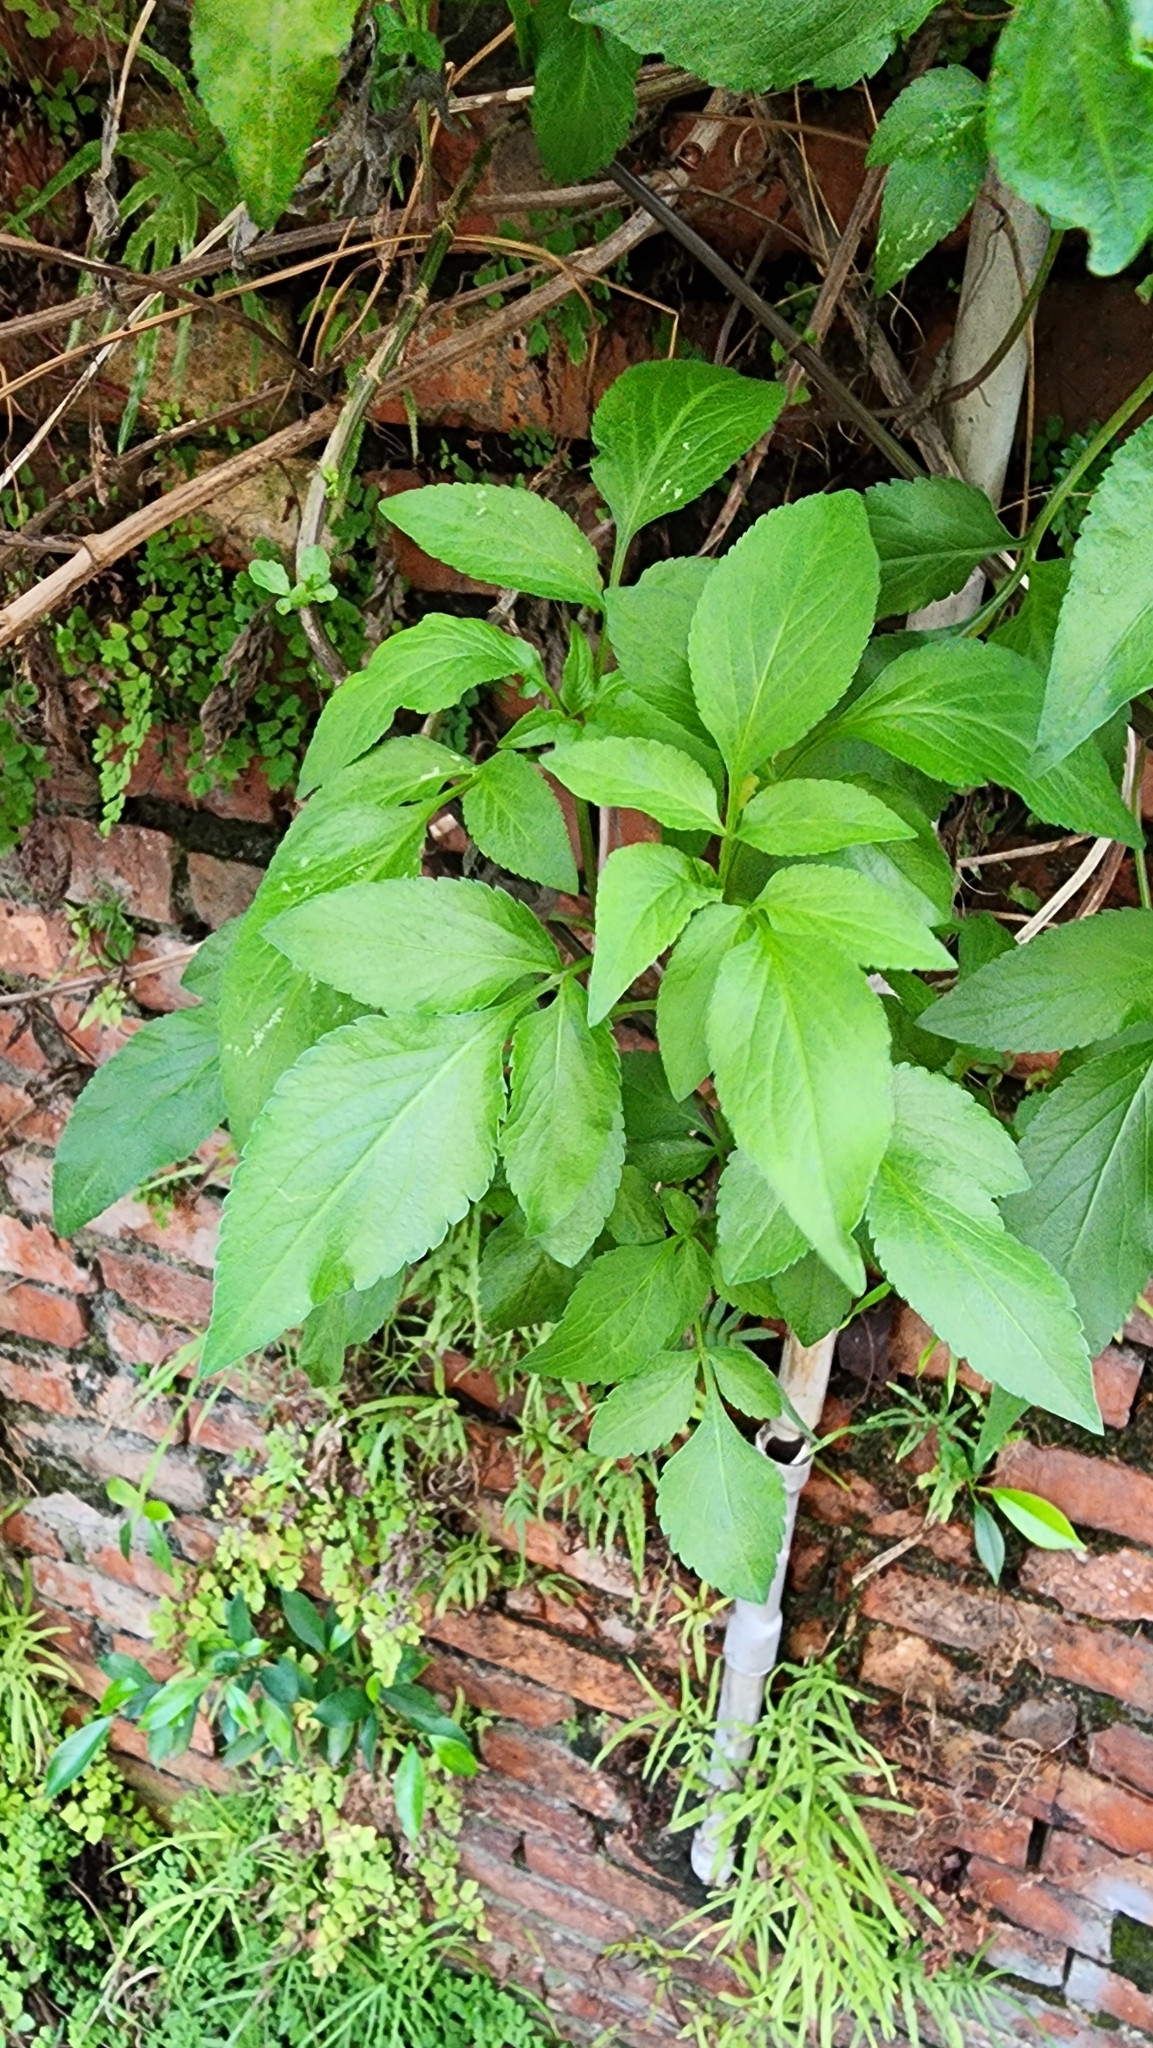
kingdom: Plantae
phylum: Tracheophyta
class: Magnoliopsida
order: Asterales
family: Asteraceae
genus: Bidens
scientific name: Bidens alba
